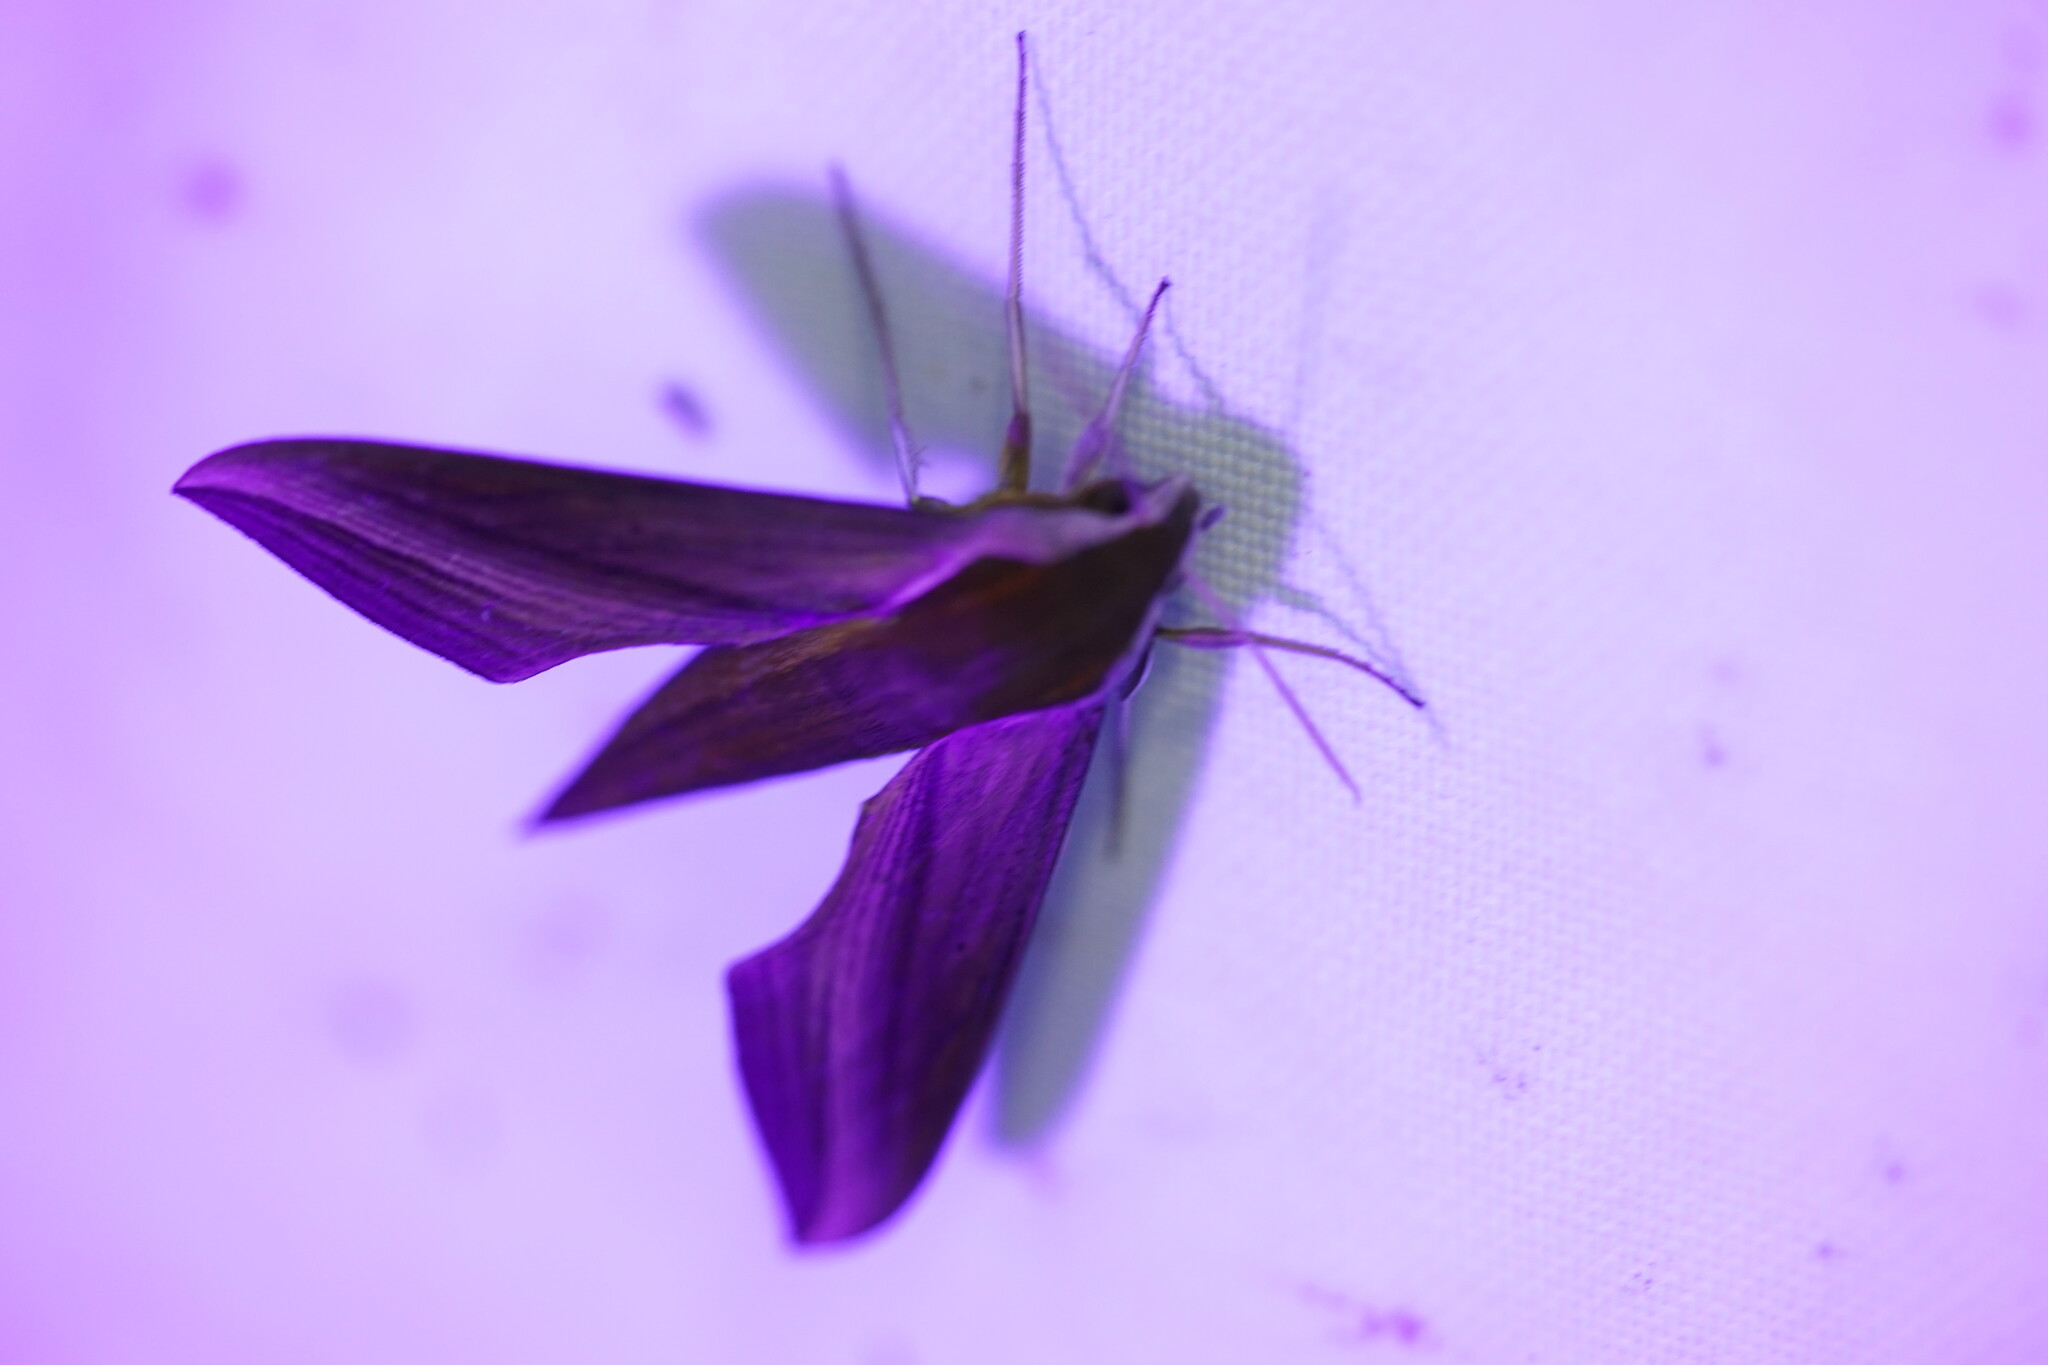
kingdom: Animalia
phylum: Arthropoda
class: Insecta
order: Lepidoptera
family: Sphingidae
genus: Xylophanes
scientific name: Xylophanes tersa
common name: Tersa sphinx
